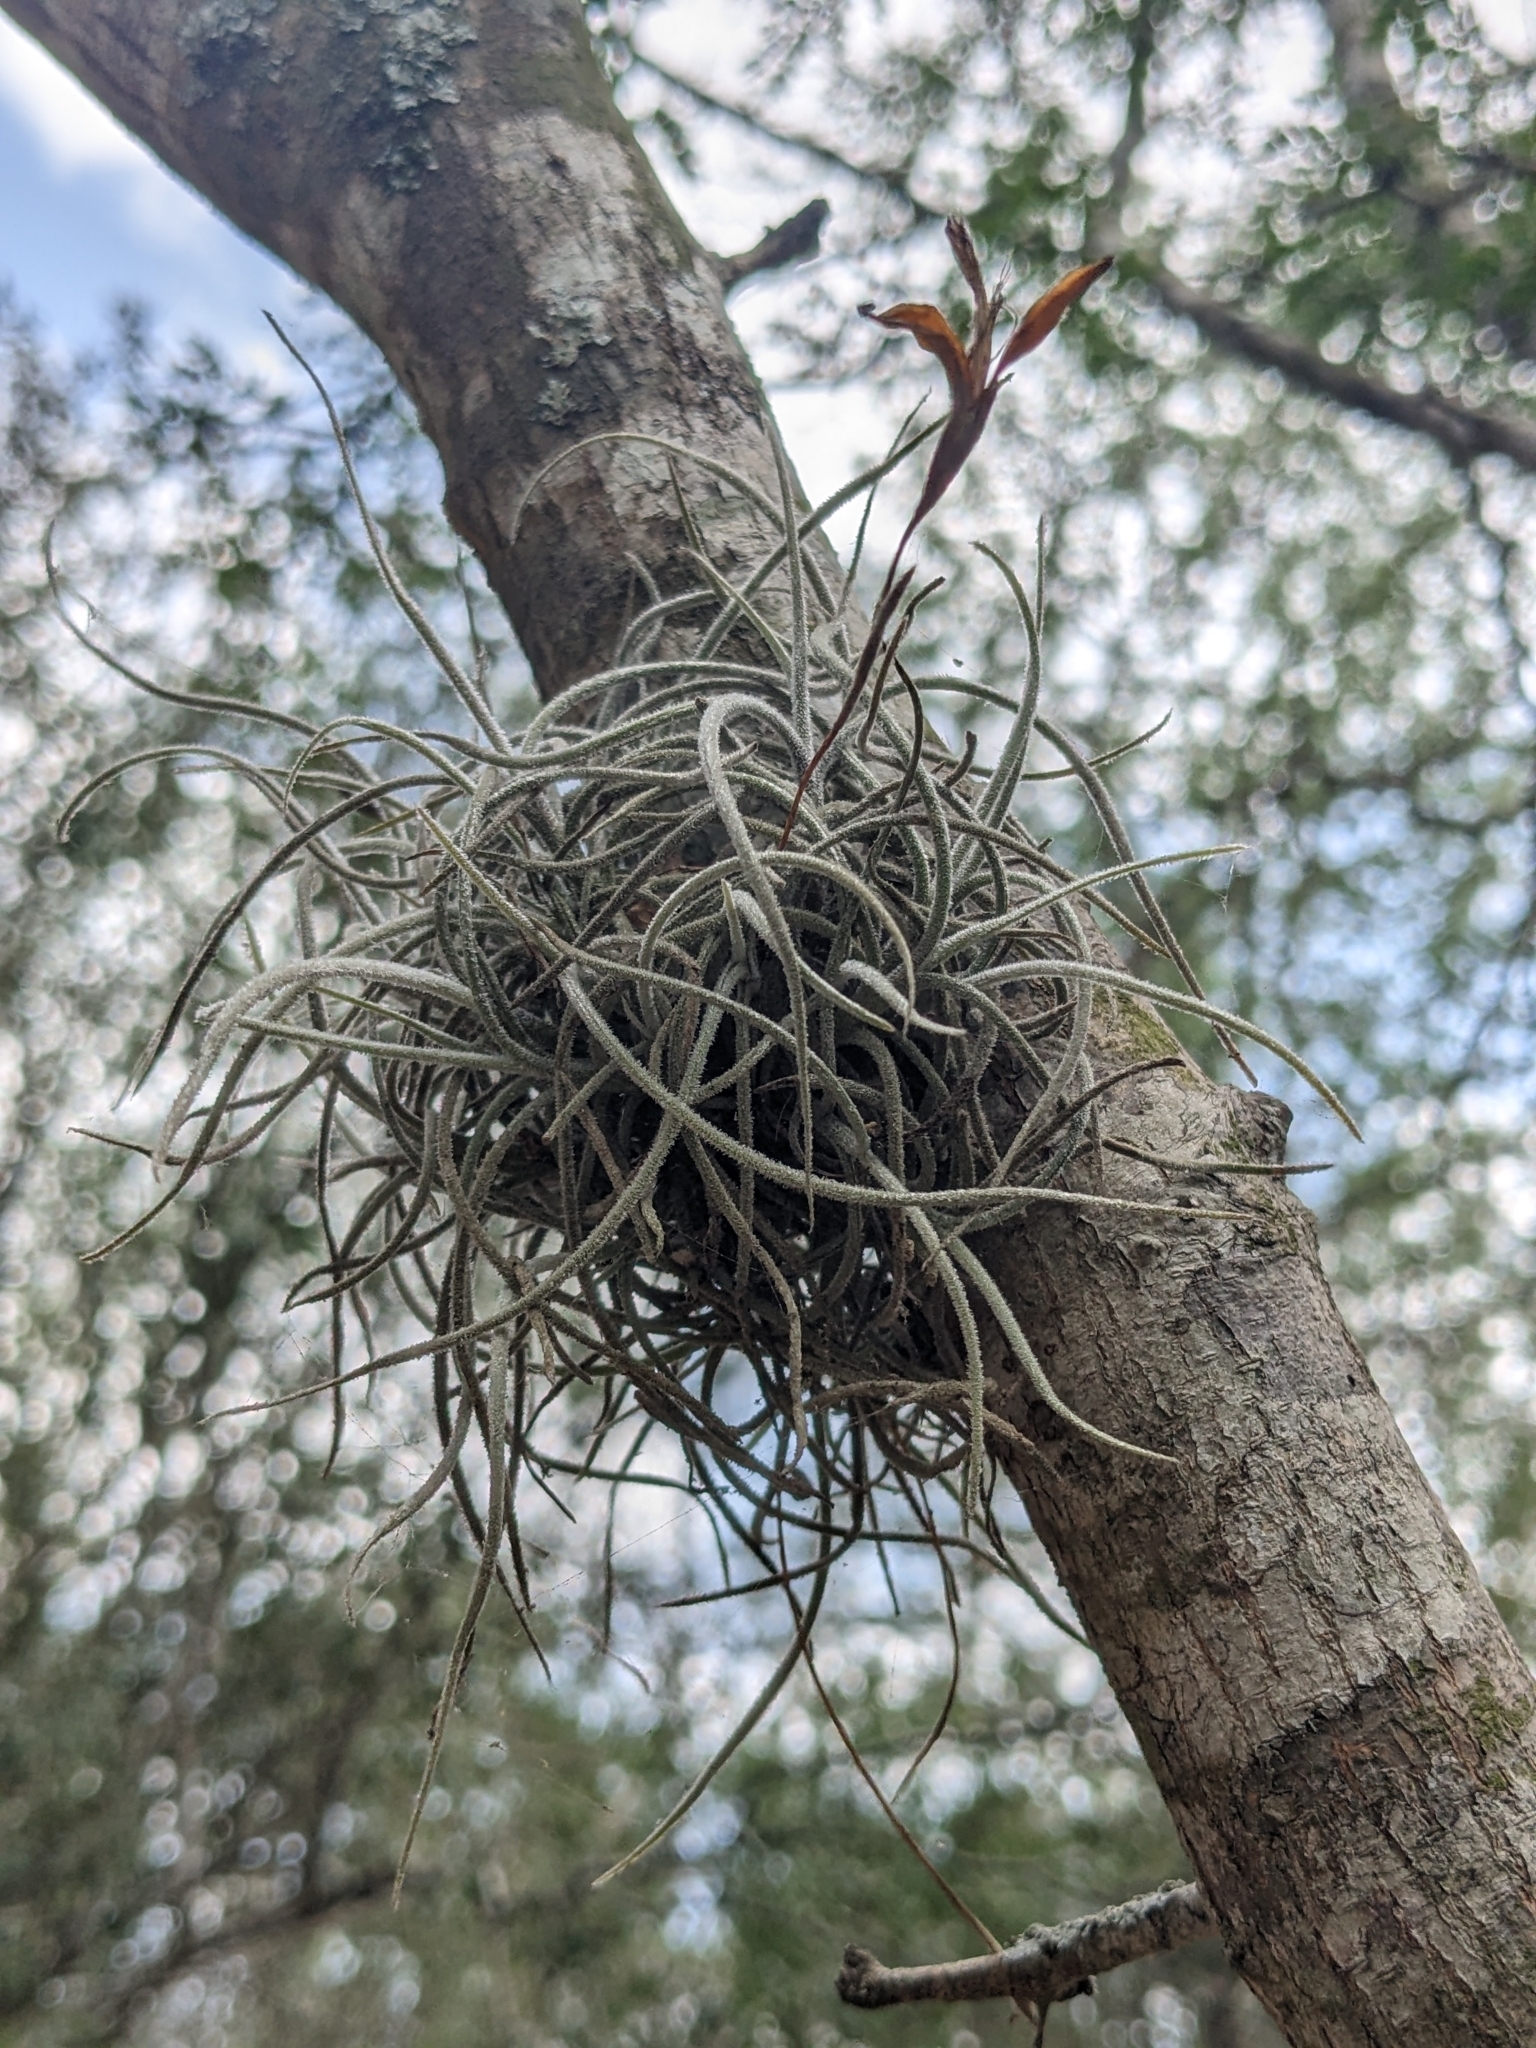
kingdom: Plantae
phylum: Tracheophyta
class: Liliopsida
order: Poales
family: Bromeliaceae
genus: Tillandsia
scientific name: Tillandsia recurvata
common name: Small ballmoss
